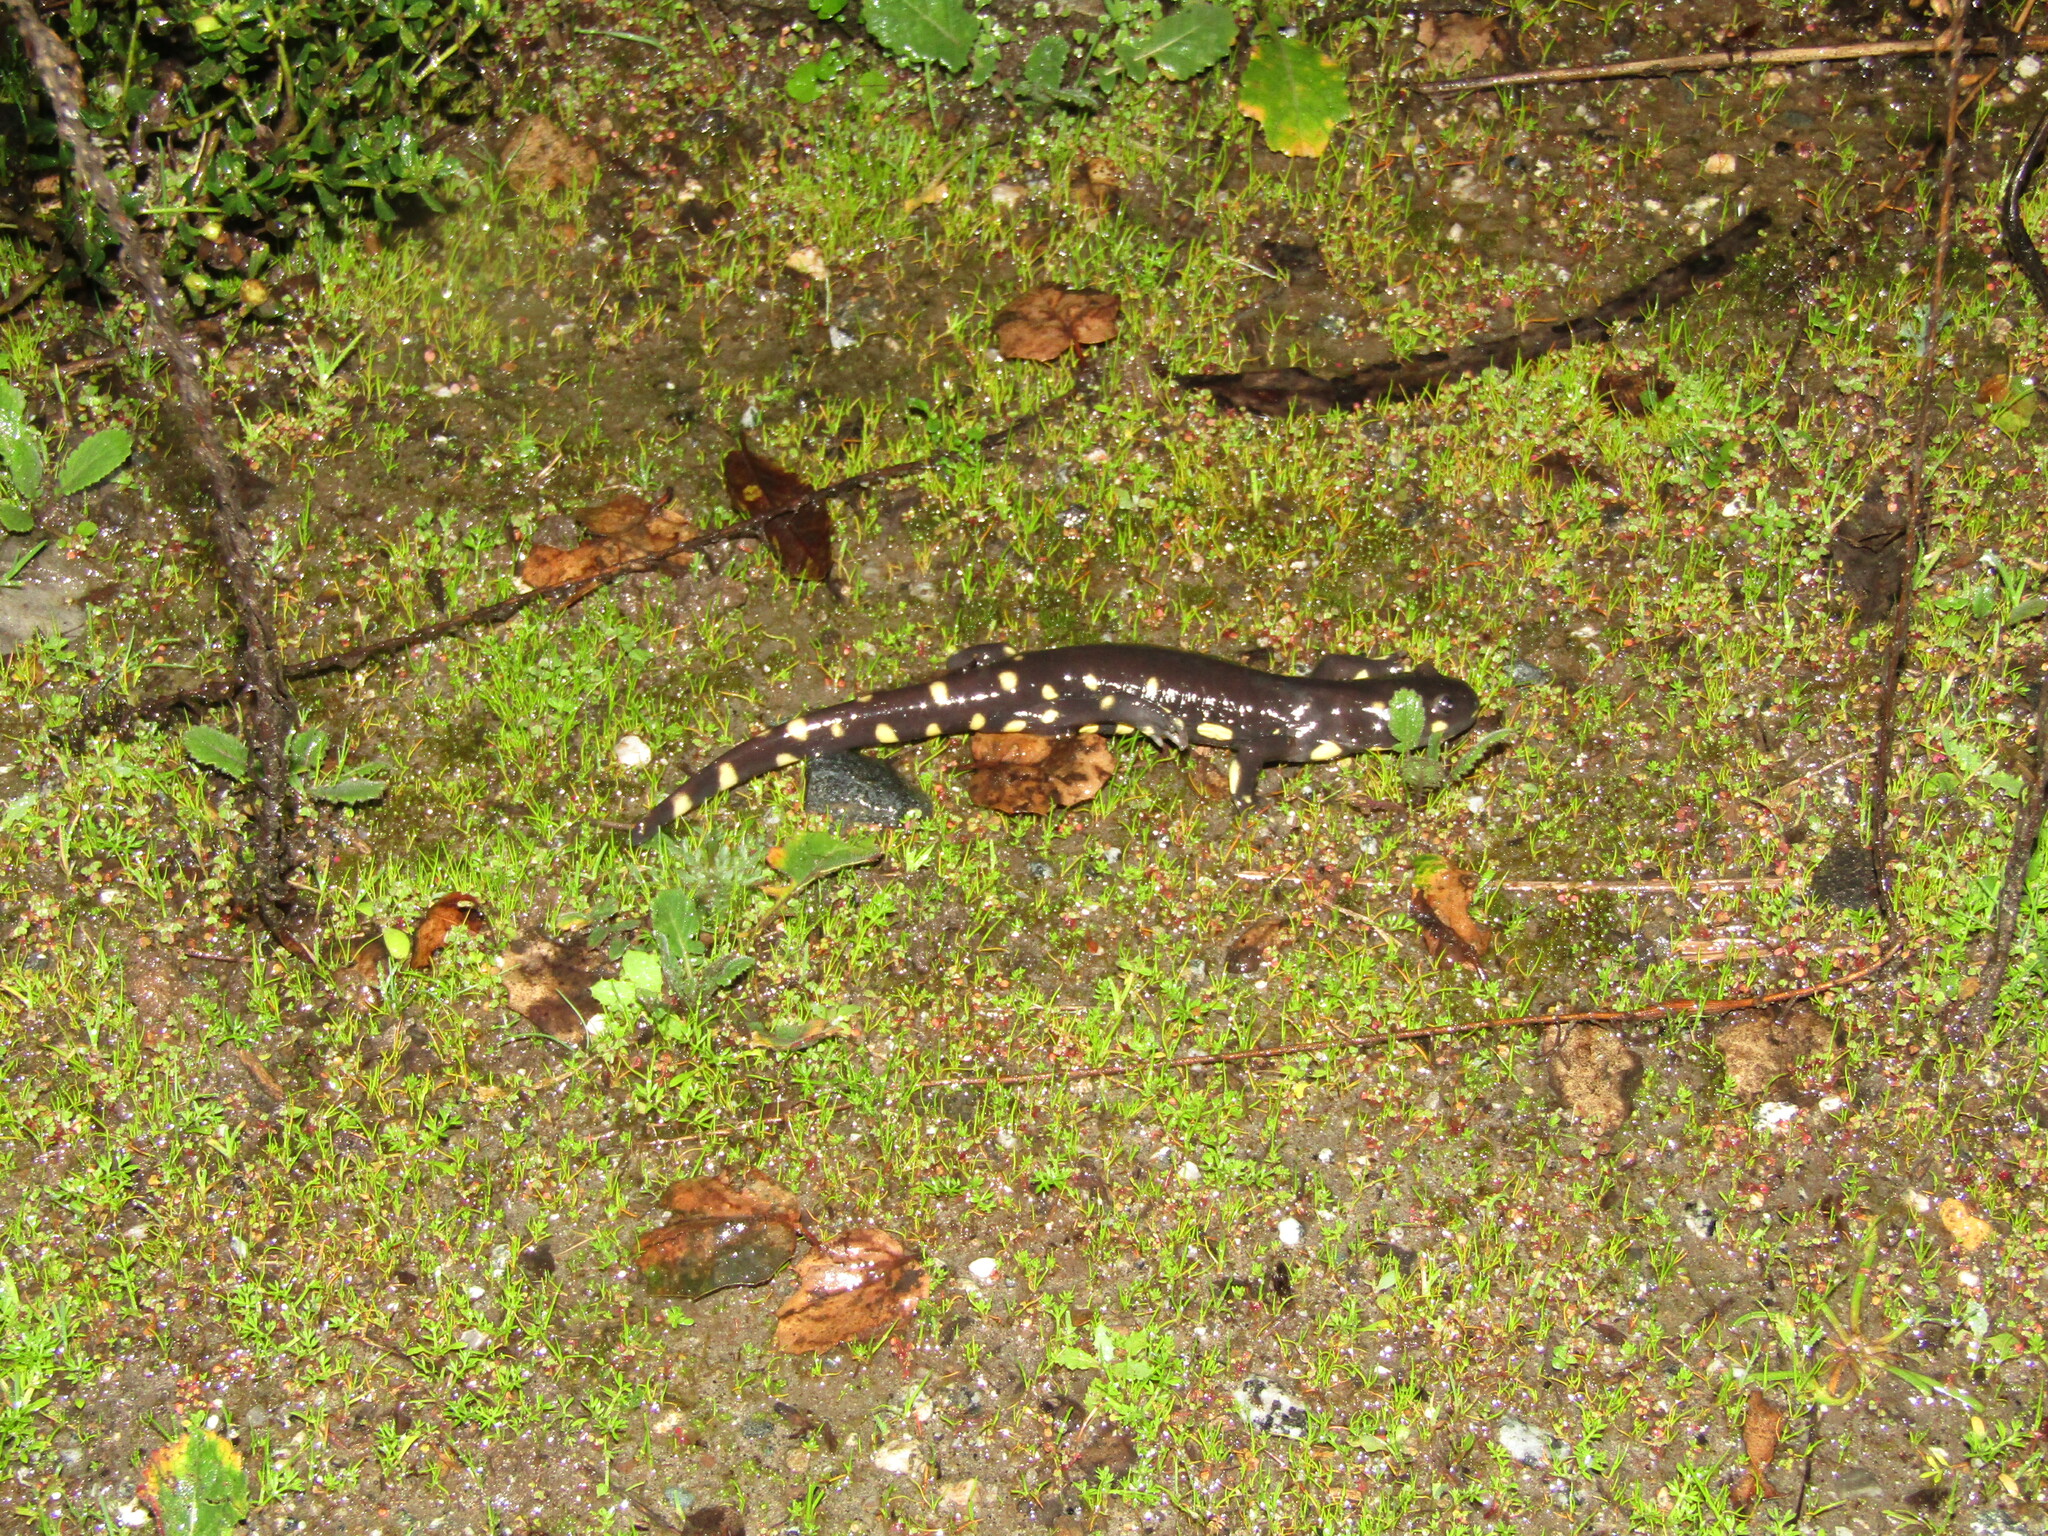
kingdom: Animalia
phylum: Chordata
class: Amphibia
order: Caudata
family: Ambystomatidae
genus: Ambystoma
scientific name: Ambystoma californiense
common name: California tiger salamander
